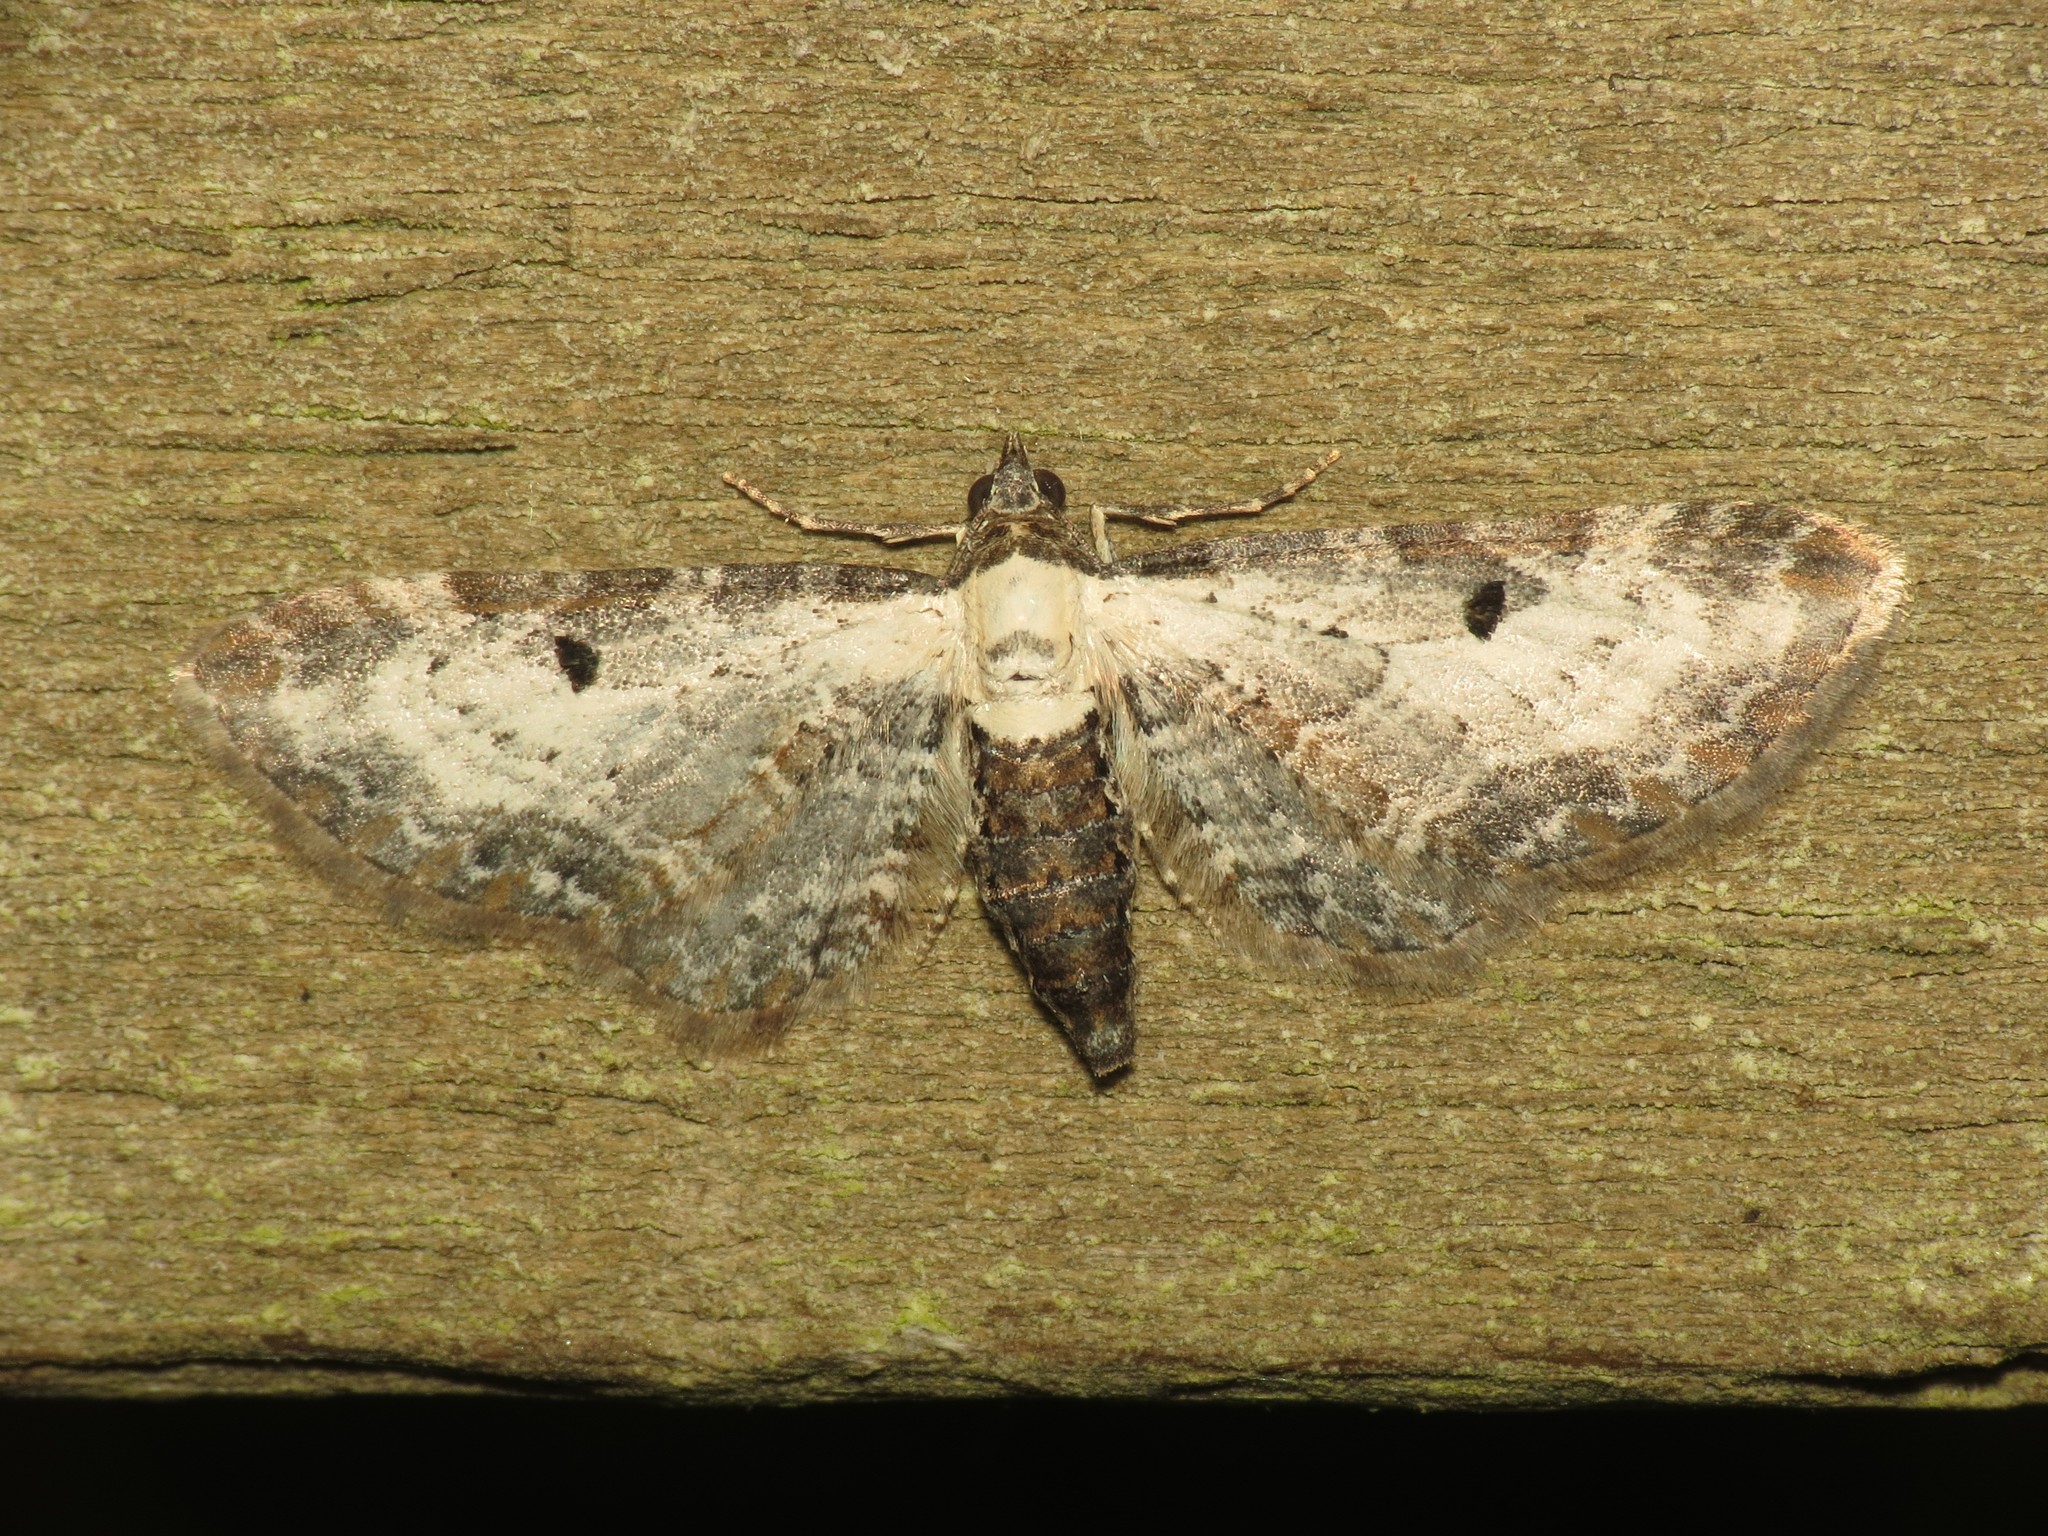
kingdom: Animalia
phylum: Arthropoda
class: Insecta
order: Lepidoptera
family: Geometridae
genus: Eupithecia
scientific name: Eupithecia succenturiata
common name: Bordered pug
